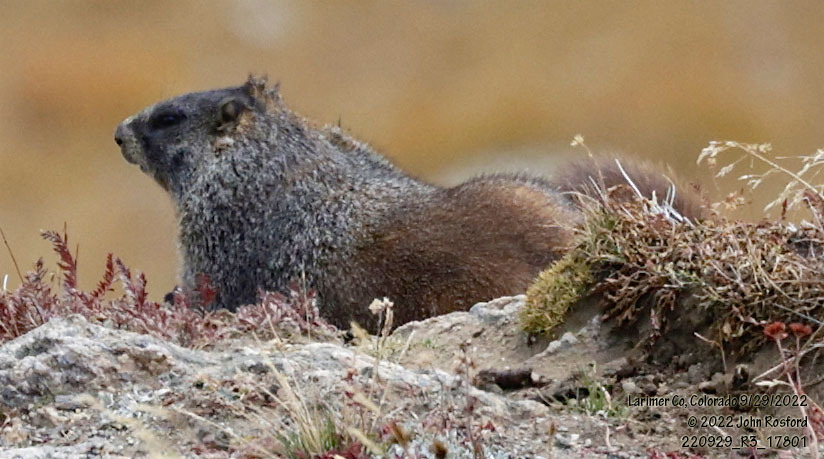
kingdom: Animalia
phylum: Chordata
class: Mammalia
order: Rodentia
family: Sciuridae
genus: Marmota
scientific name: Marmota flaviventris
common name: Yellow-bellied marmot
